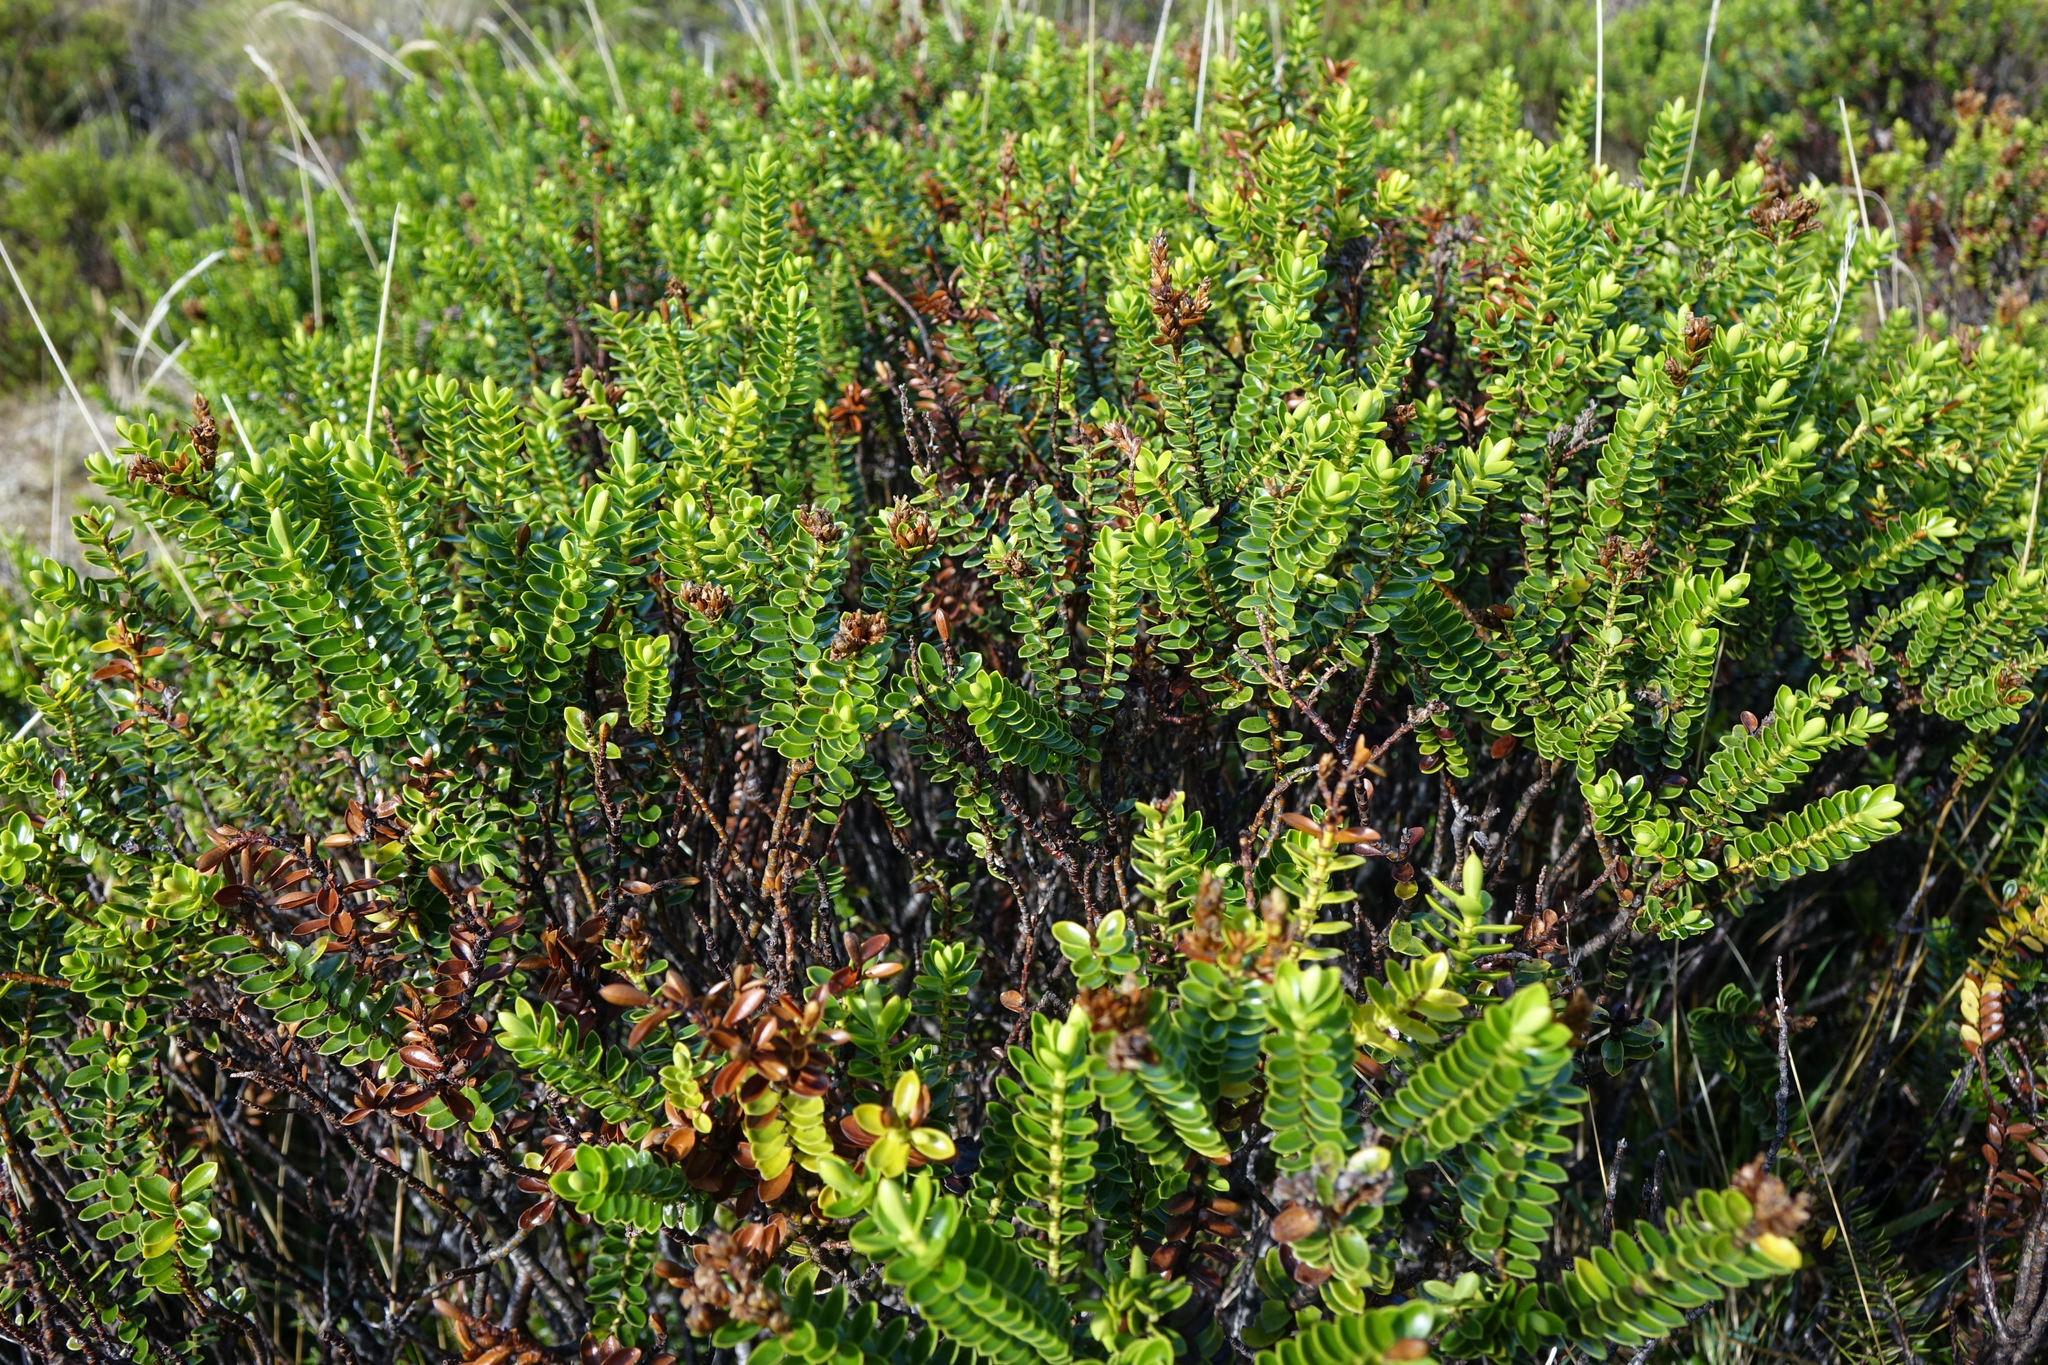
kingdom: Plantae
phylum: Tracheophyta
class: Magnoliopsida
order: Lamiales
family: Plantaginaceae
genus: Veronica
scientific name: Veronica odora
